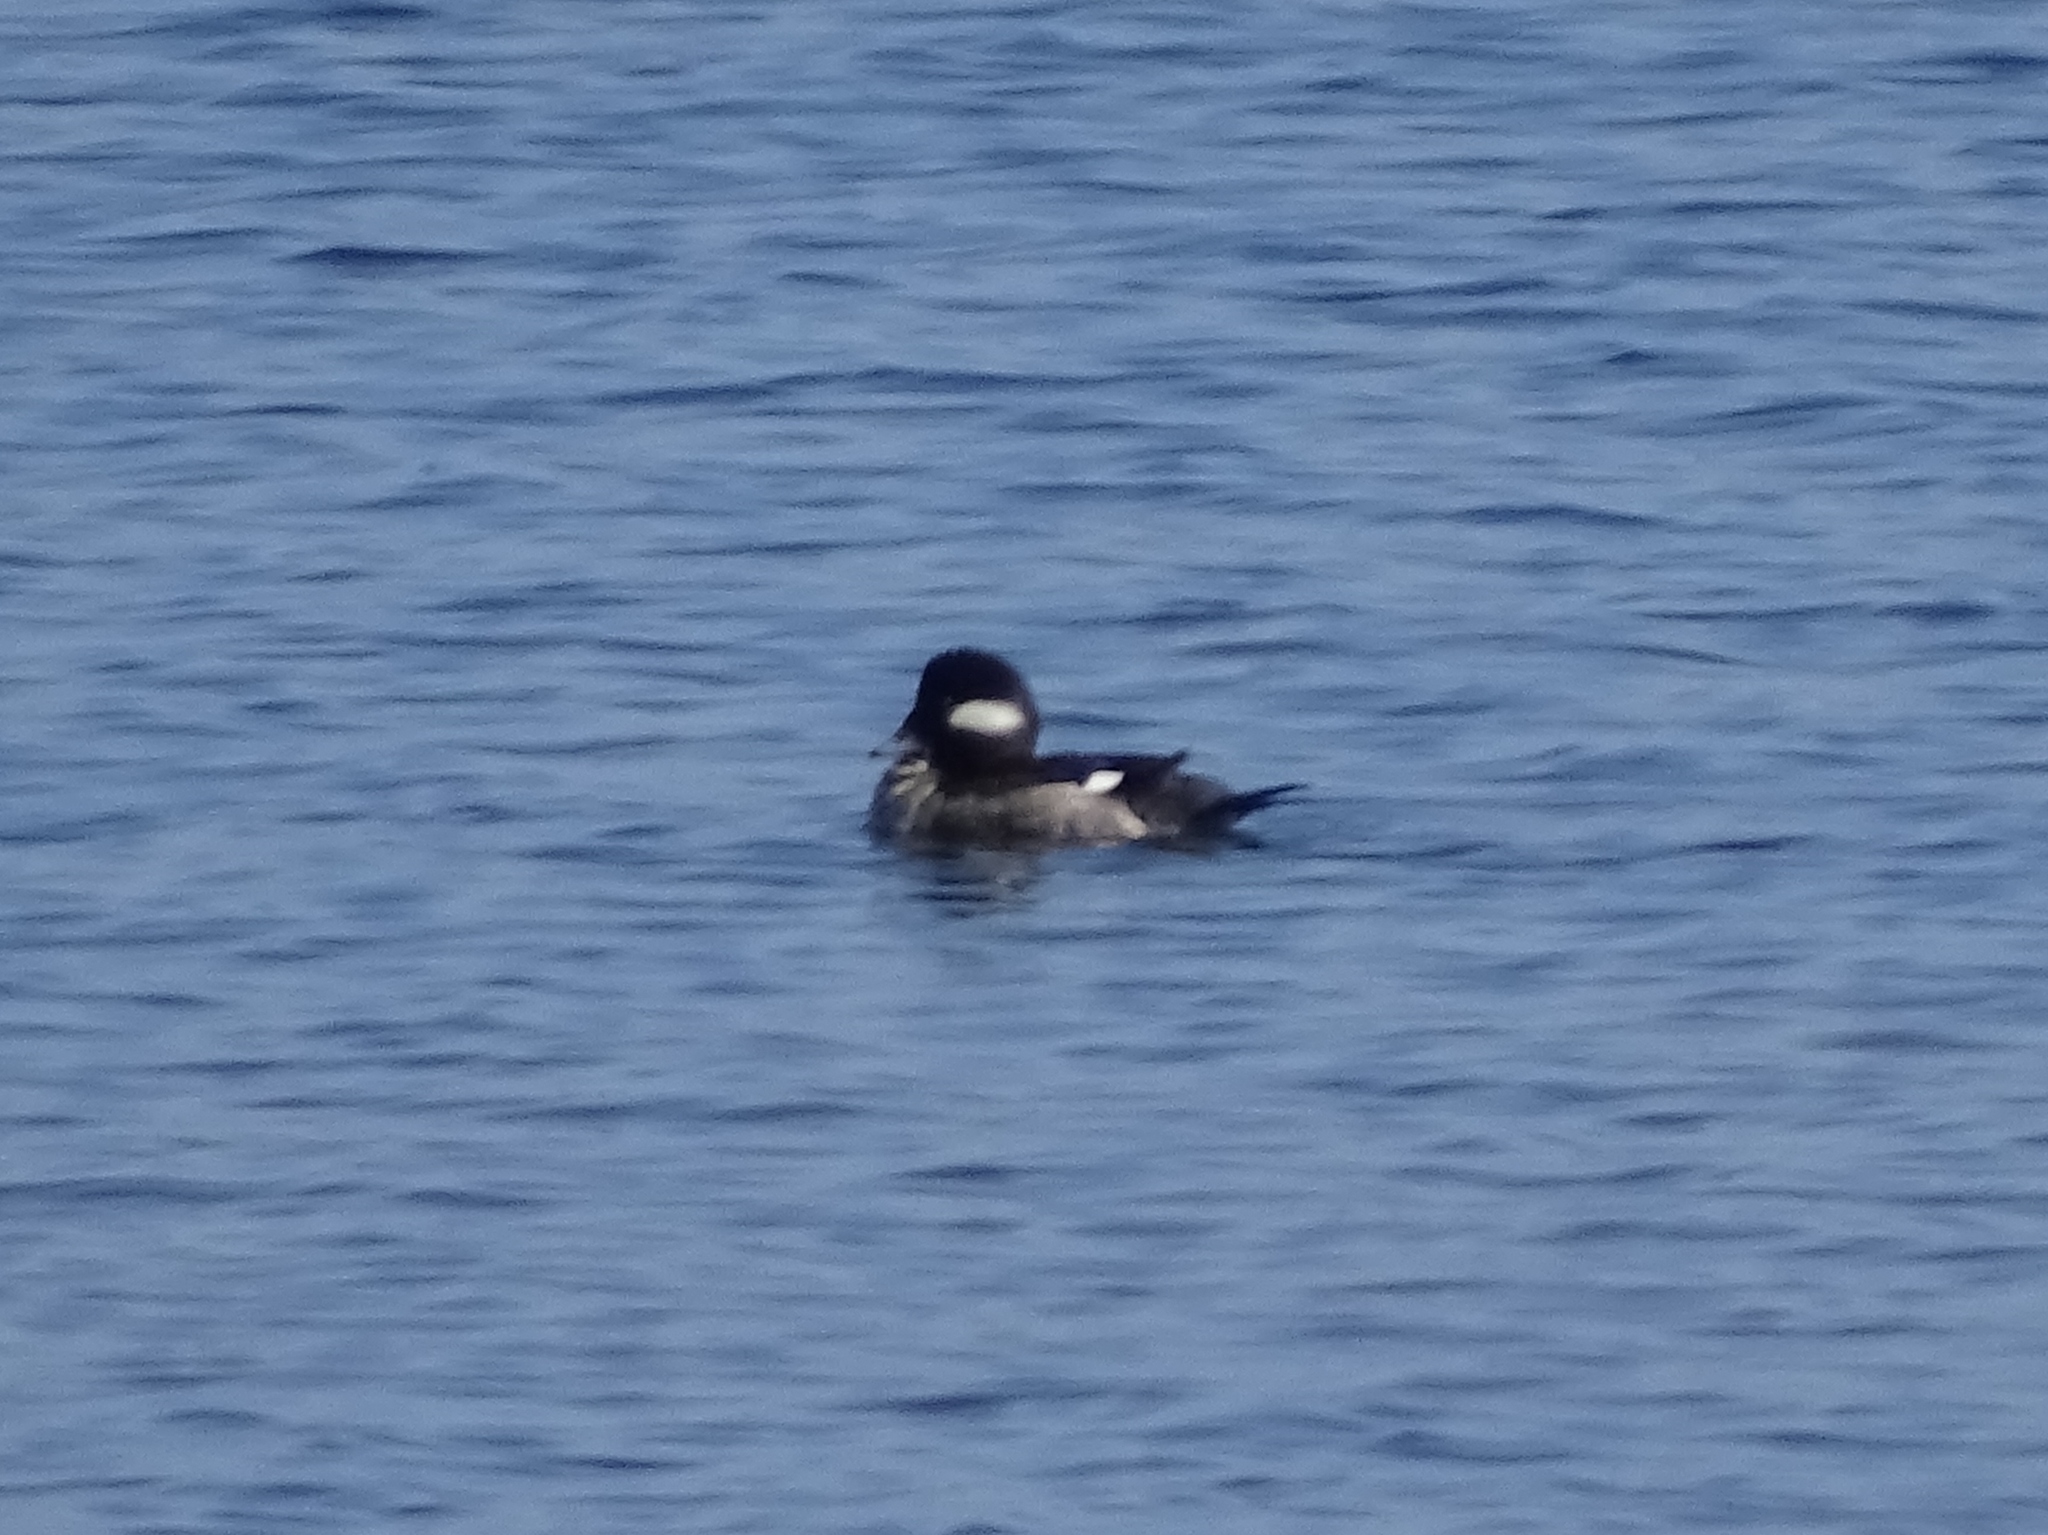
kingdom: Animalia
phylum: Chordata
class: Aves
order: Anseriformes
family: Anatidae
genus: Bucephala
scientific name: Bucephala albeola
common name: Bufflehead
